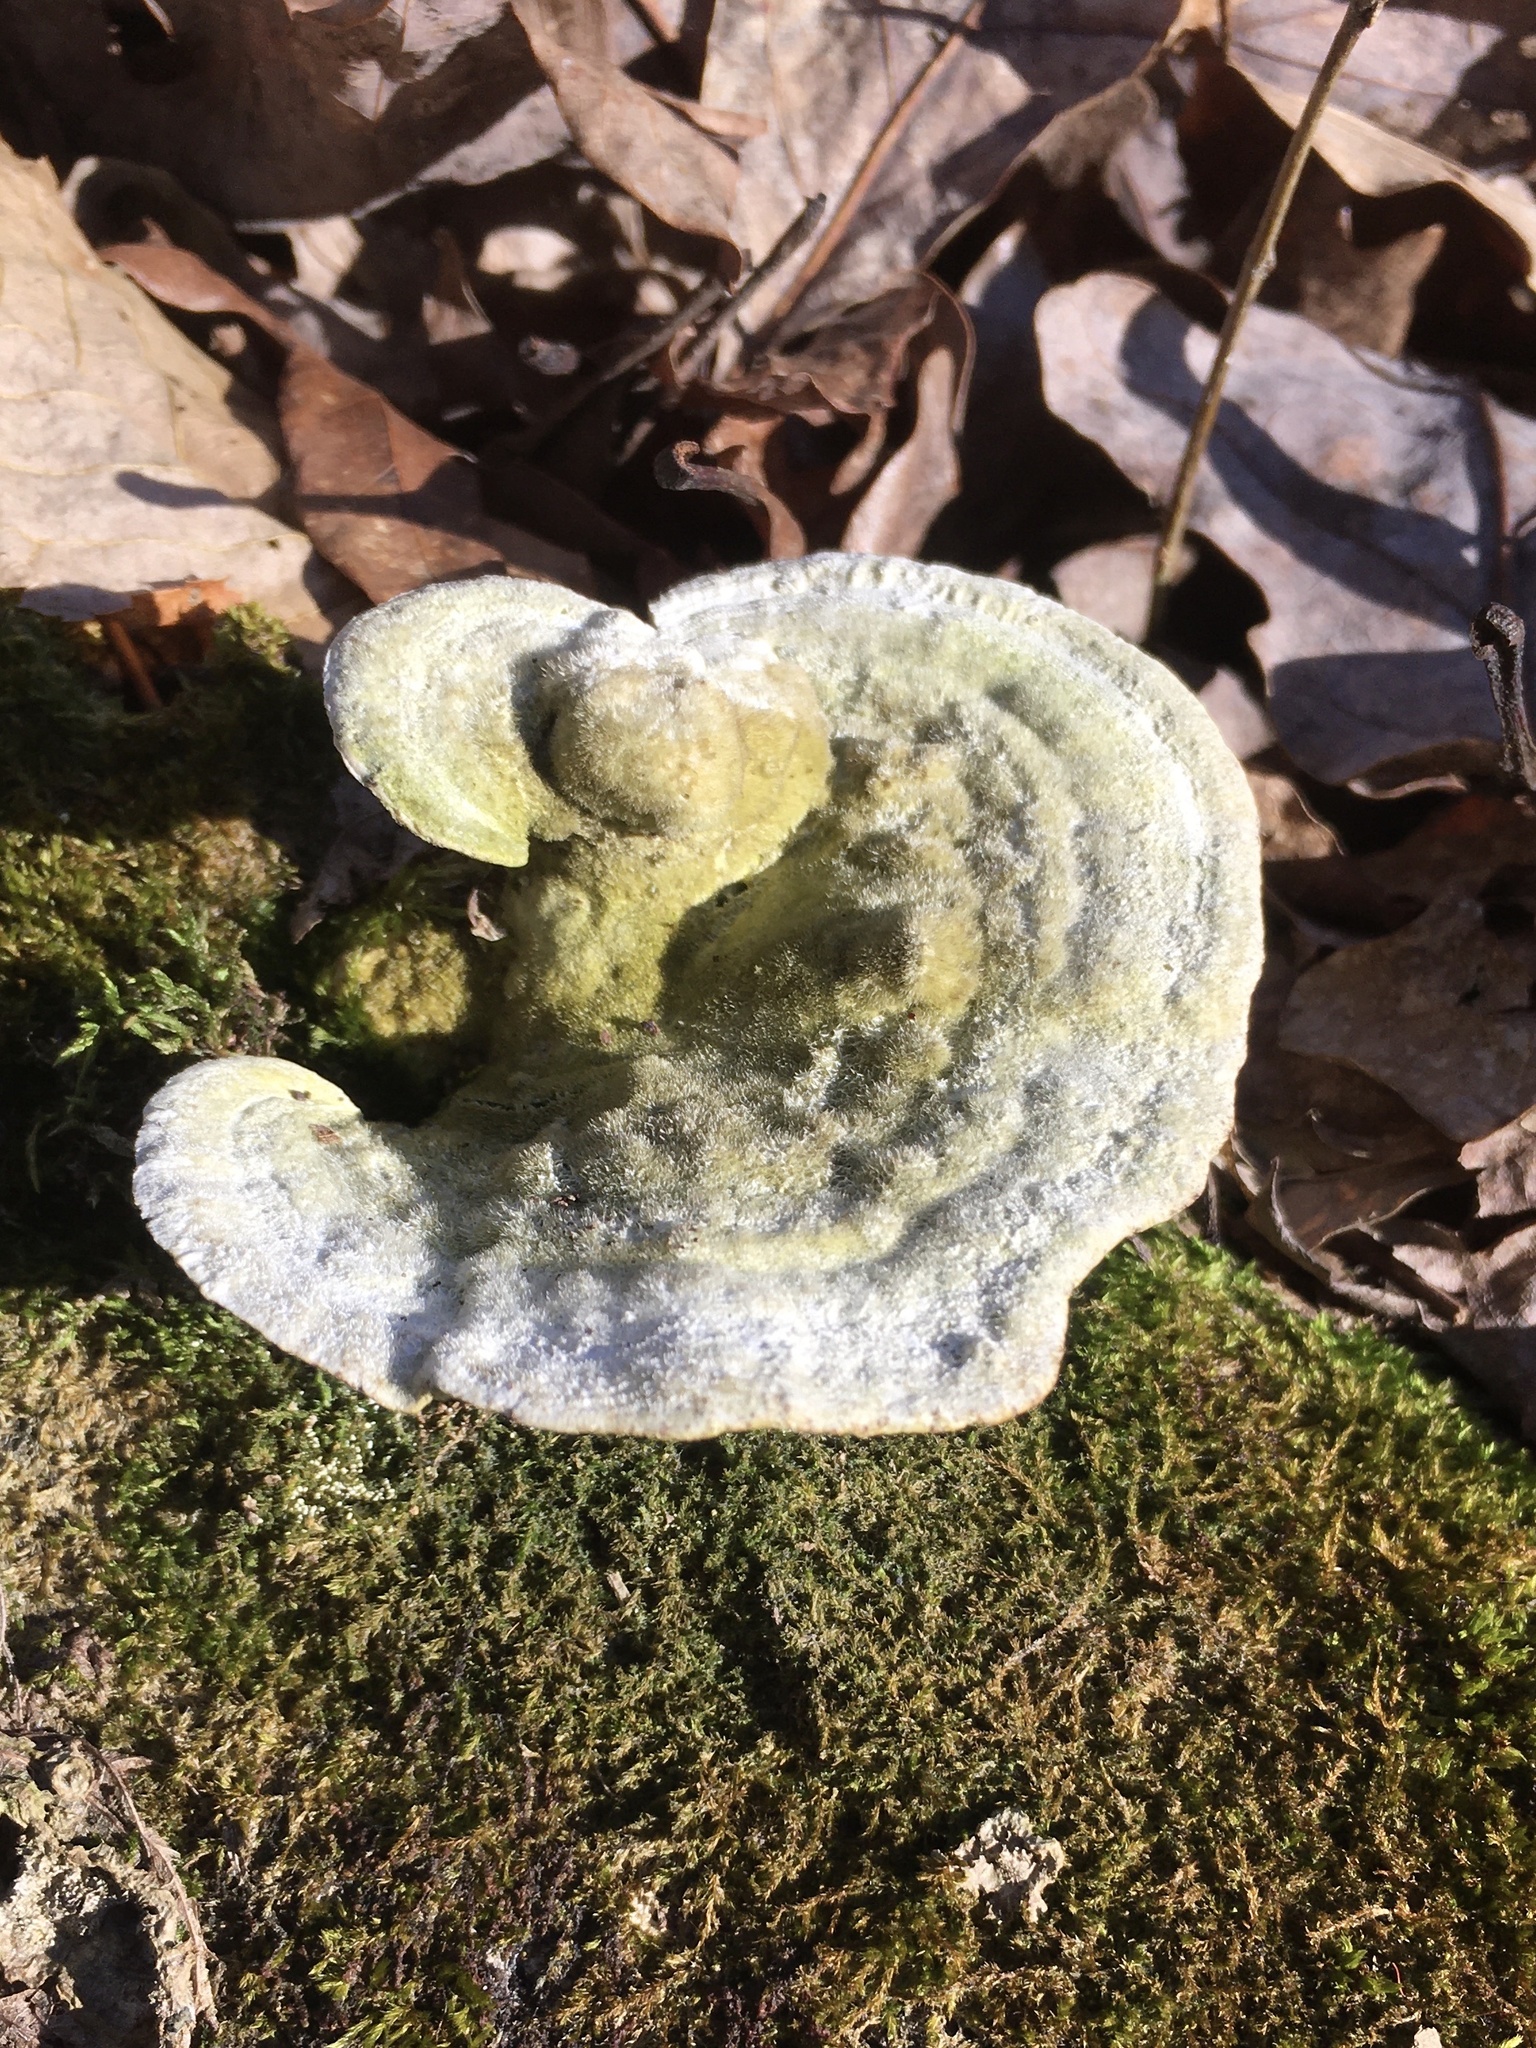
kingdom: Fungi
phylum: Basidiomycota
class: Agaricomycetes
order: Polyporales
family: Polyporaceae
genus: Trametes
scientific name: Trametes gibbosa
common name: Lumpy bracket
